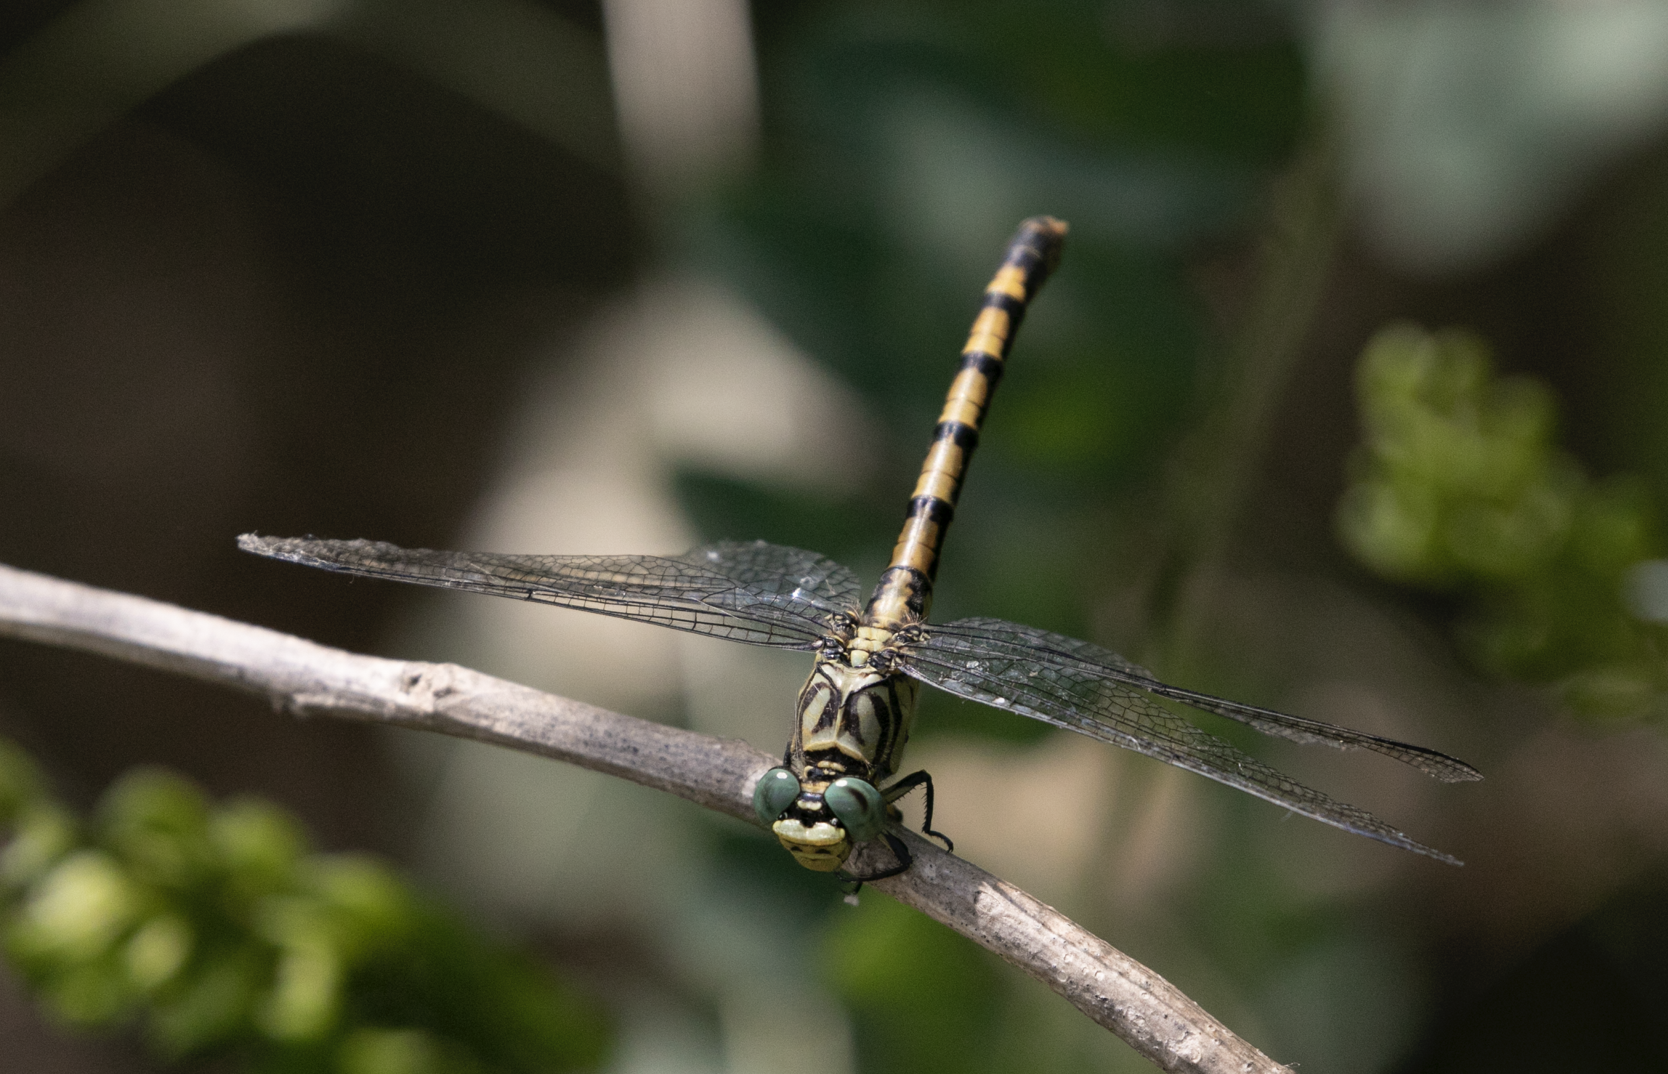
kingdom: Animalia
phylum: Arthropoda
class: Insecta
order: Odonata
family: Gomphidae
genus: Onychogomphus
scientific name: Onychogomphus forcipatus
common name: Small pincertail
